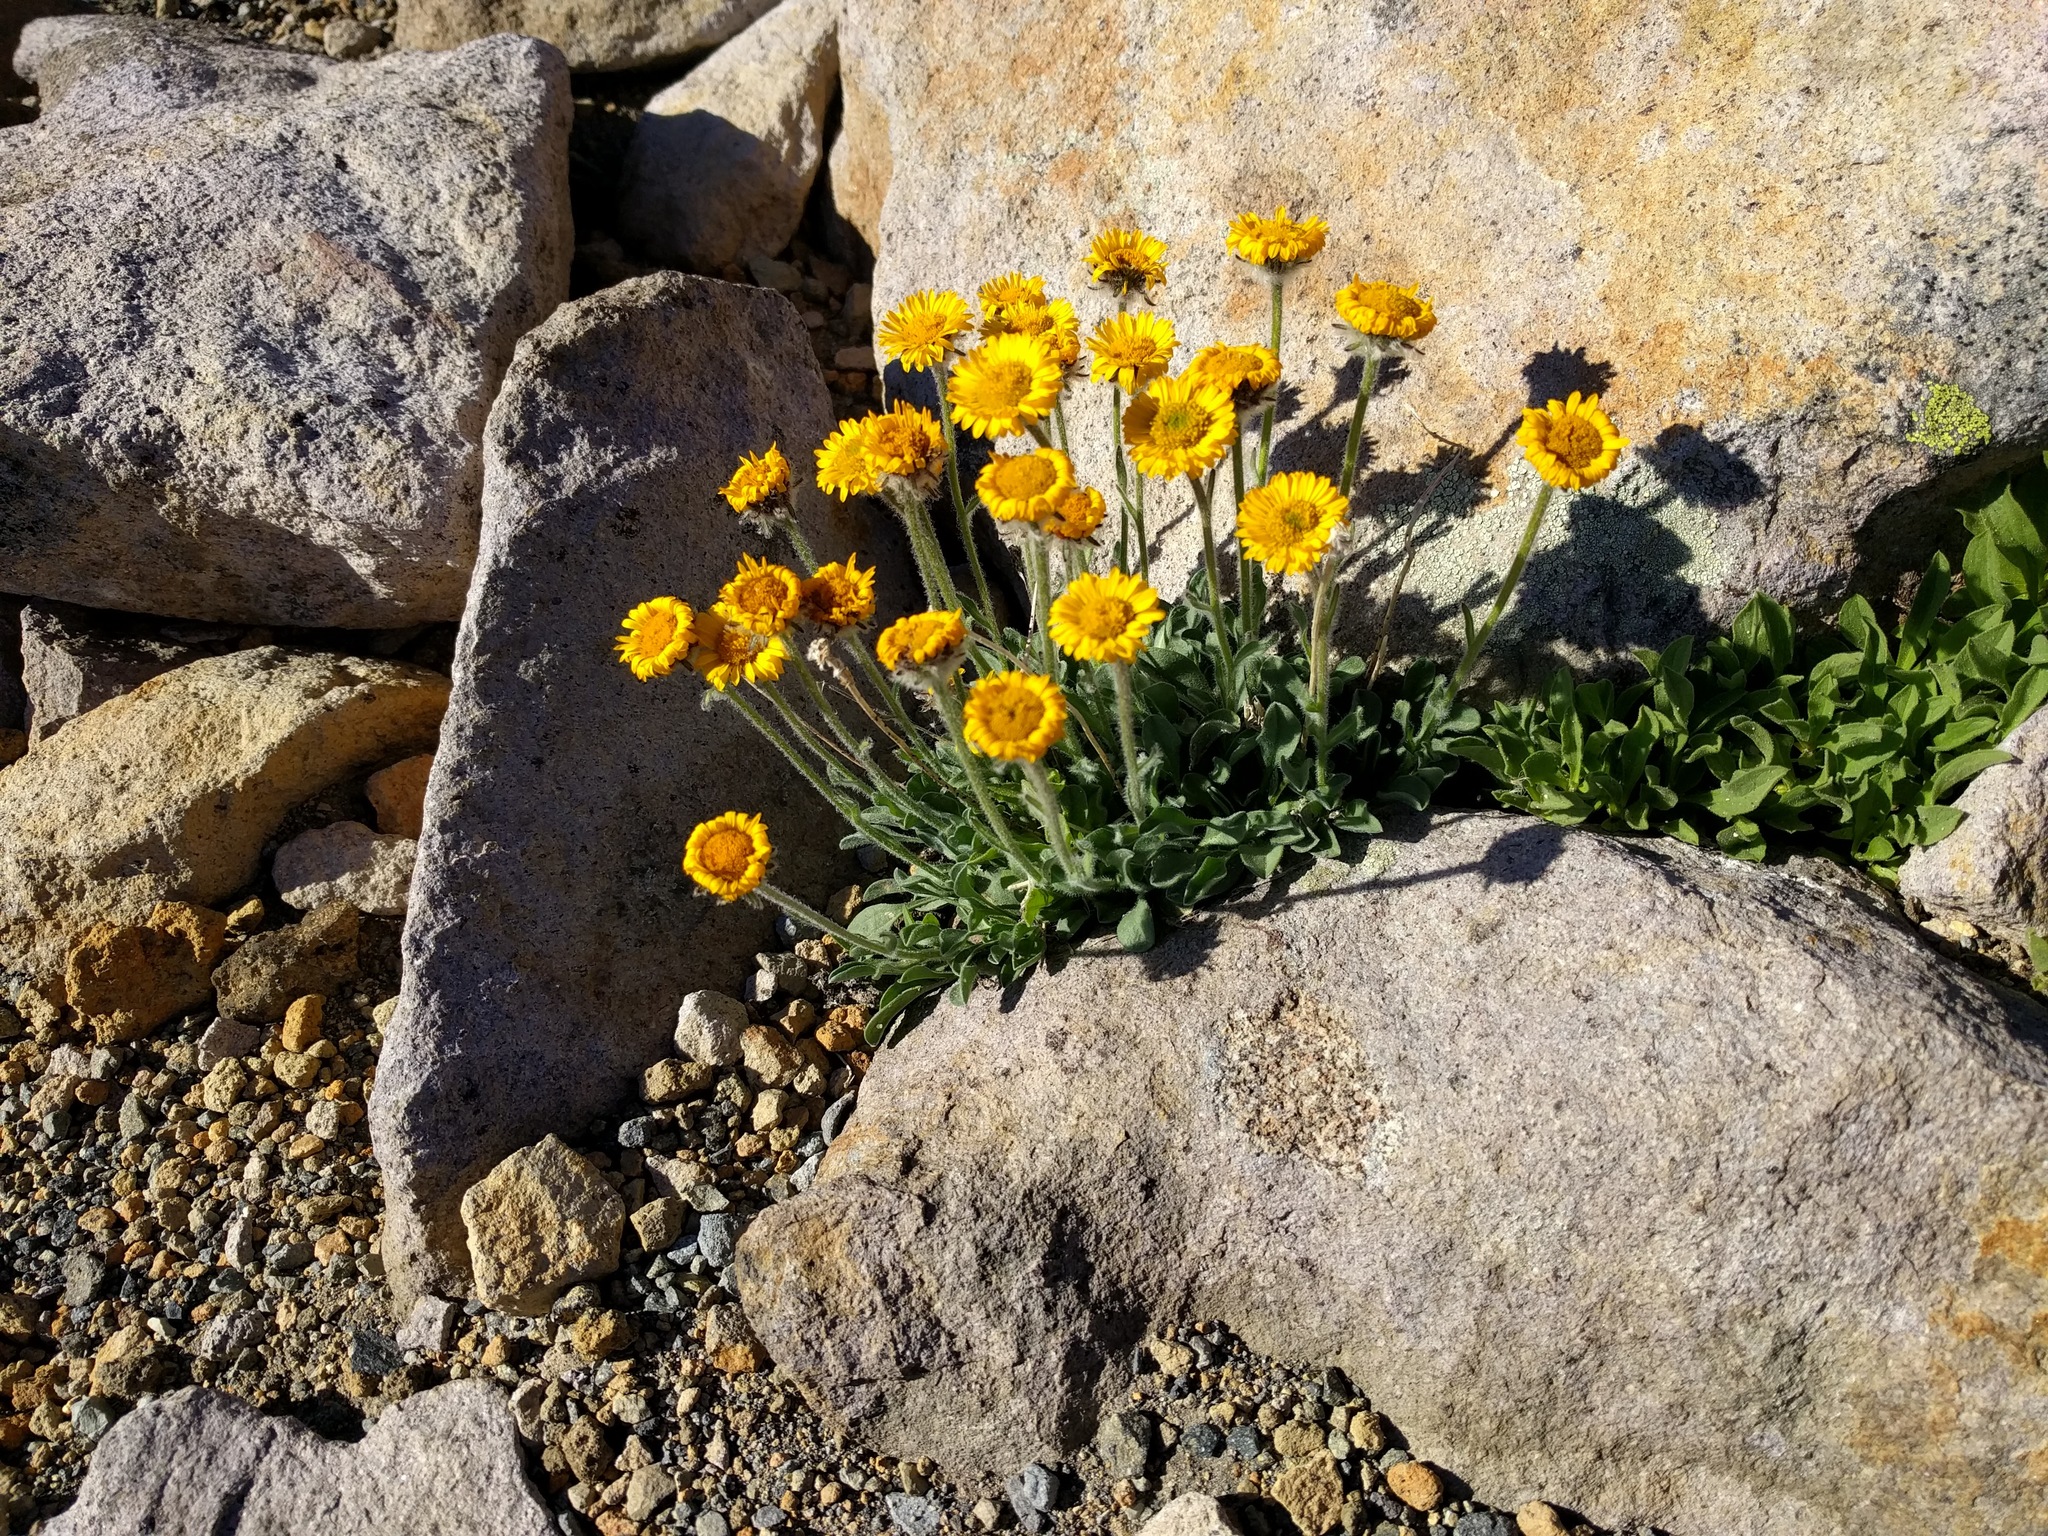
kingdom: Plantae
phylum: Tracheophyta
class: Magnoliopsida
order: Asterales
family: Asteraceae
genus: Erigeron
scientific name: Erigeron aureus
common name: Alpine yellow fleabane
